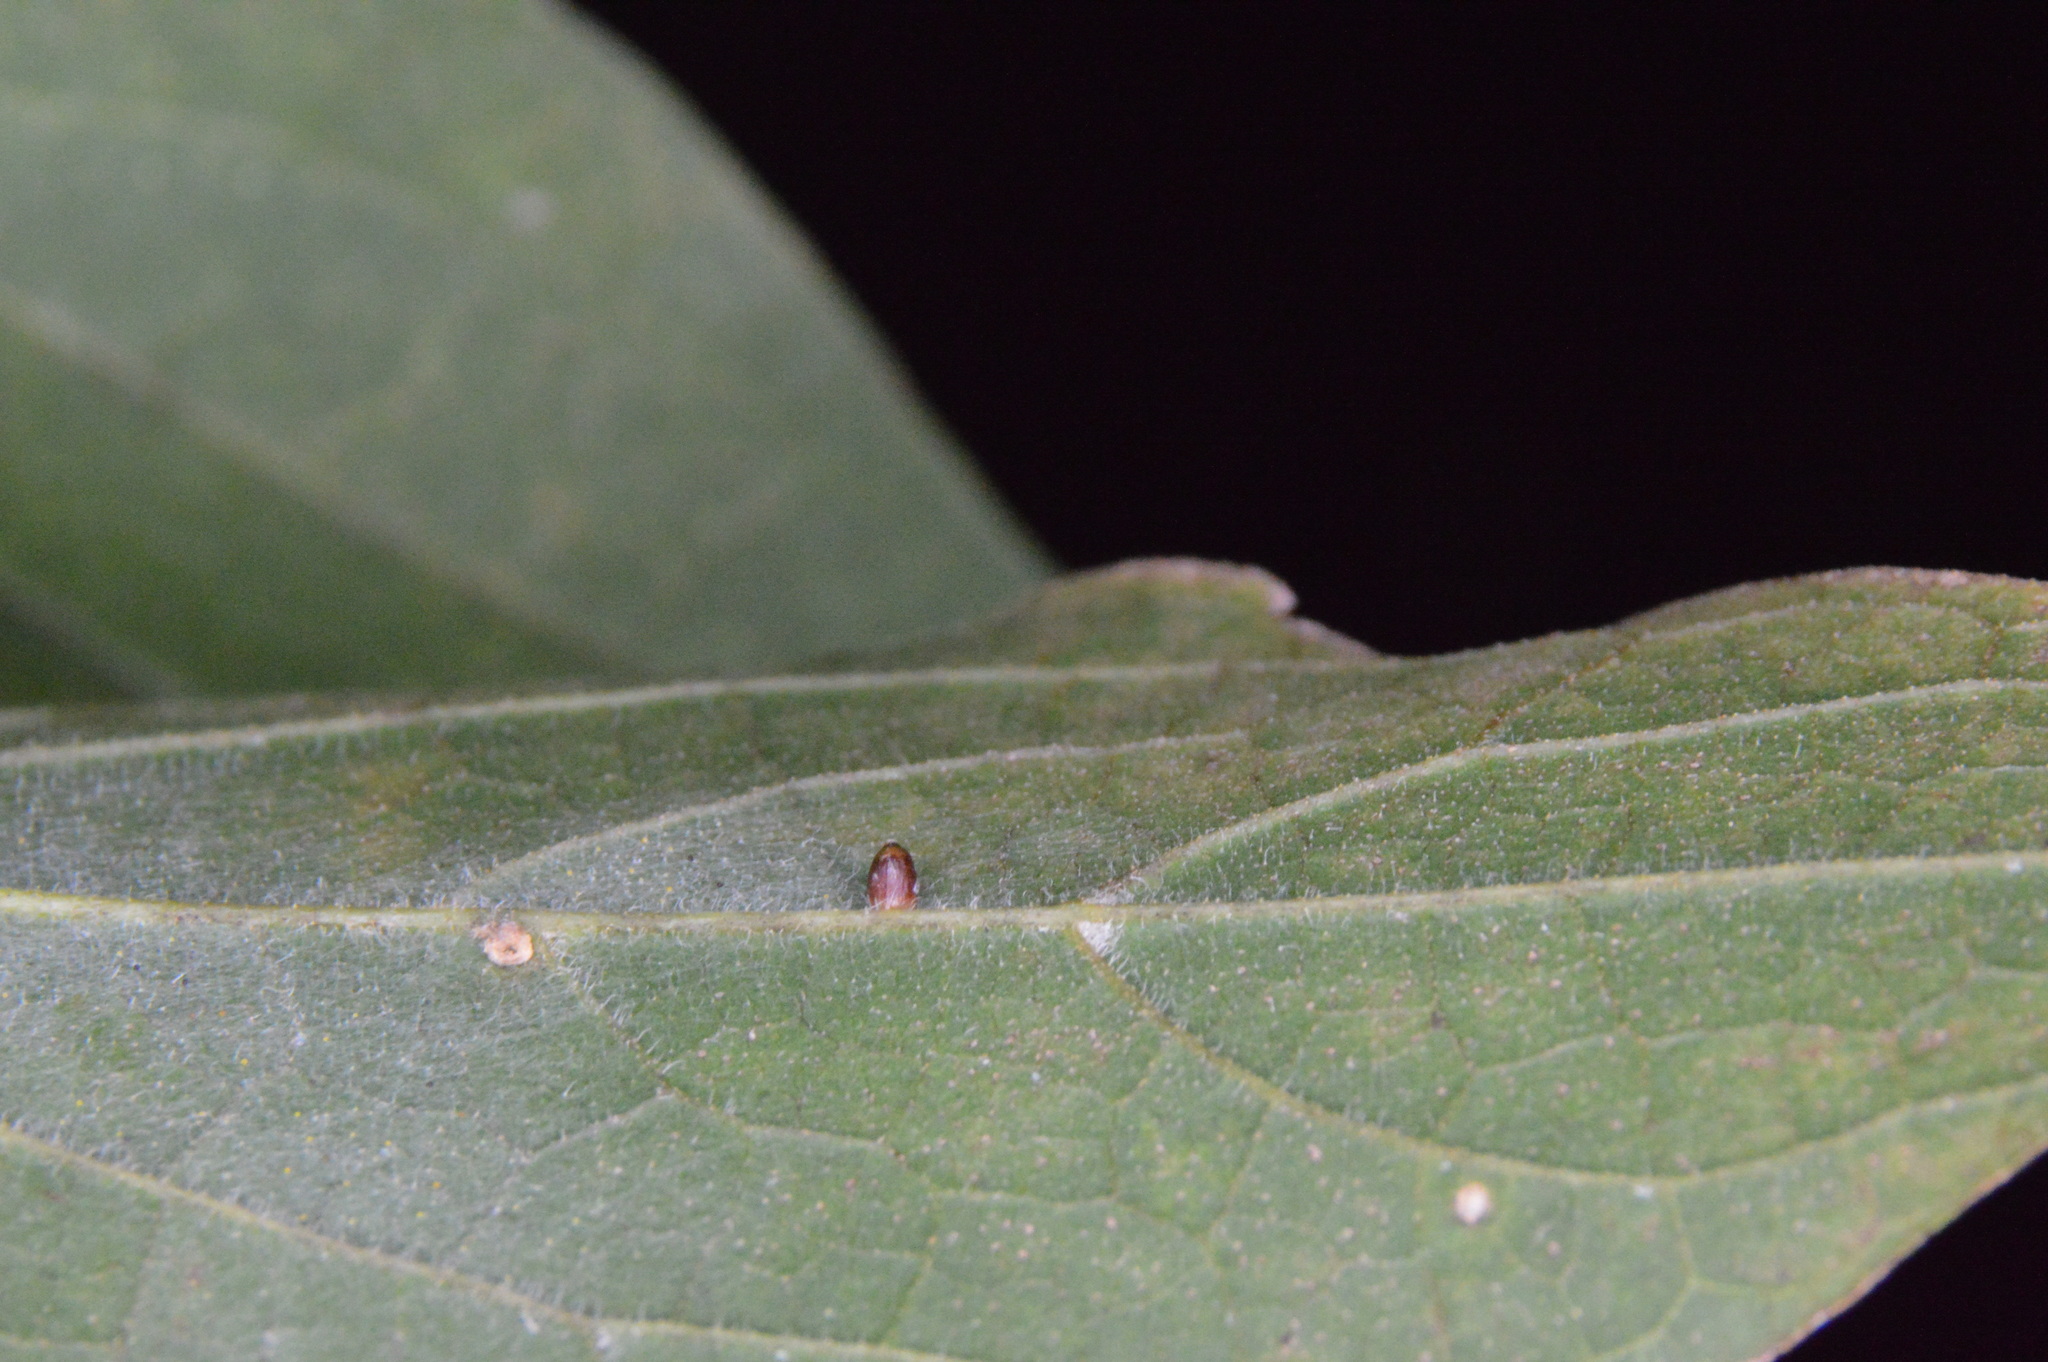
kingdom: Animalia
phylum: Arthropoda
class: Insecta
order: Diptera
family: Cecidomyiidae
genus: Celticecis
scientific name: Celticecis cupiformis
